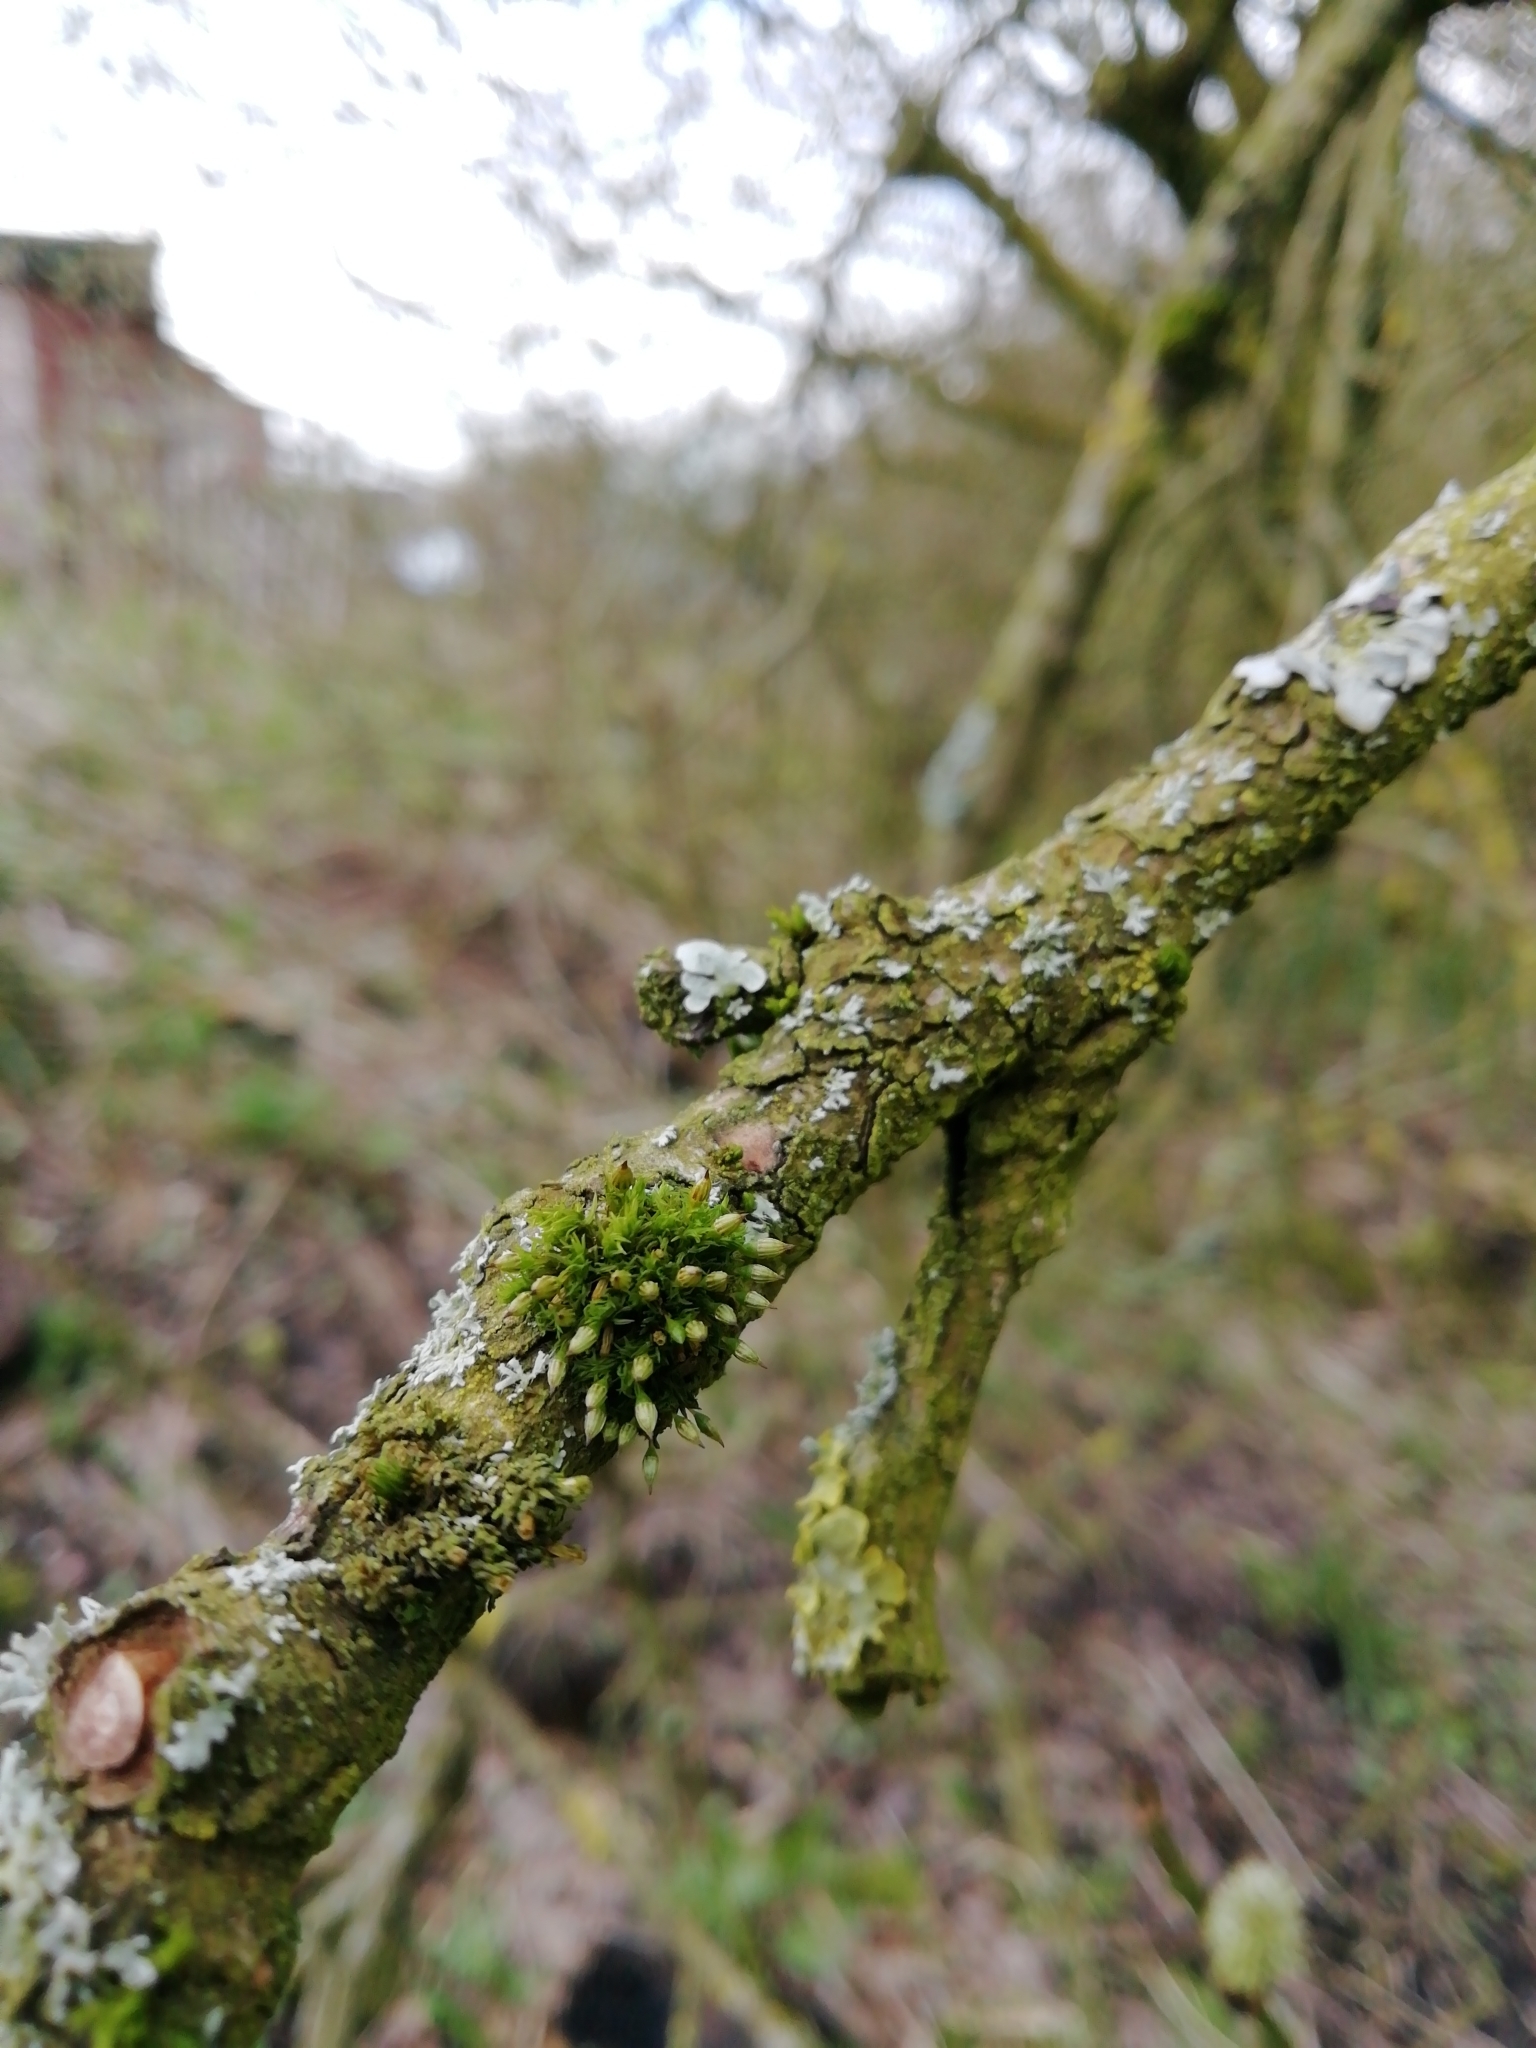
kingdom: Plantae
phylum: Bryophyta
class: Bryopsida
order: Orthotrichales
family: Orthotrichaceae
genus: Orthotrichum
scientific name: Orthotrichum pulchellum
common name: Elegant bristle-moss
